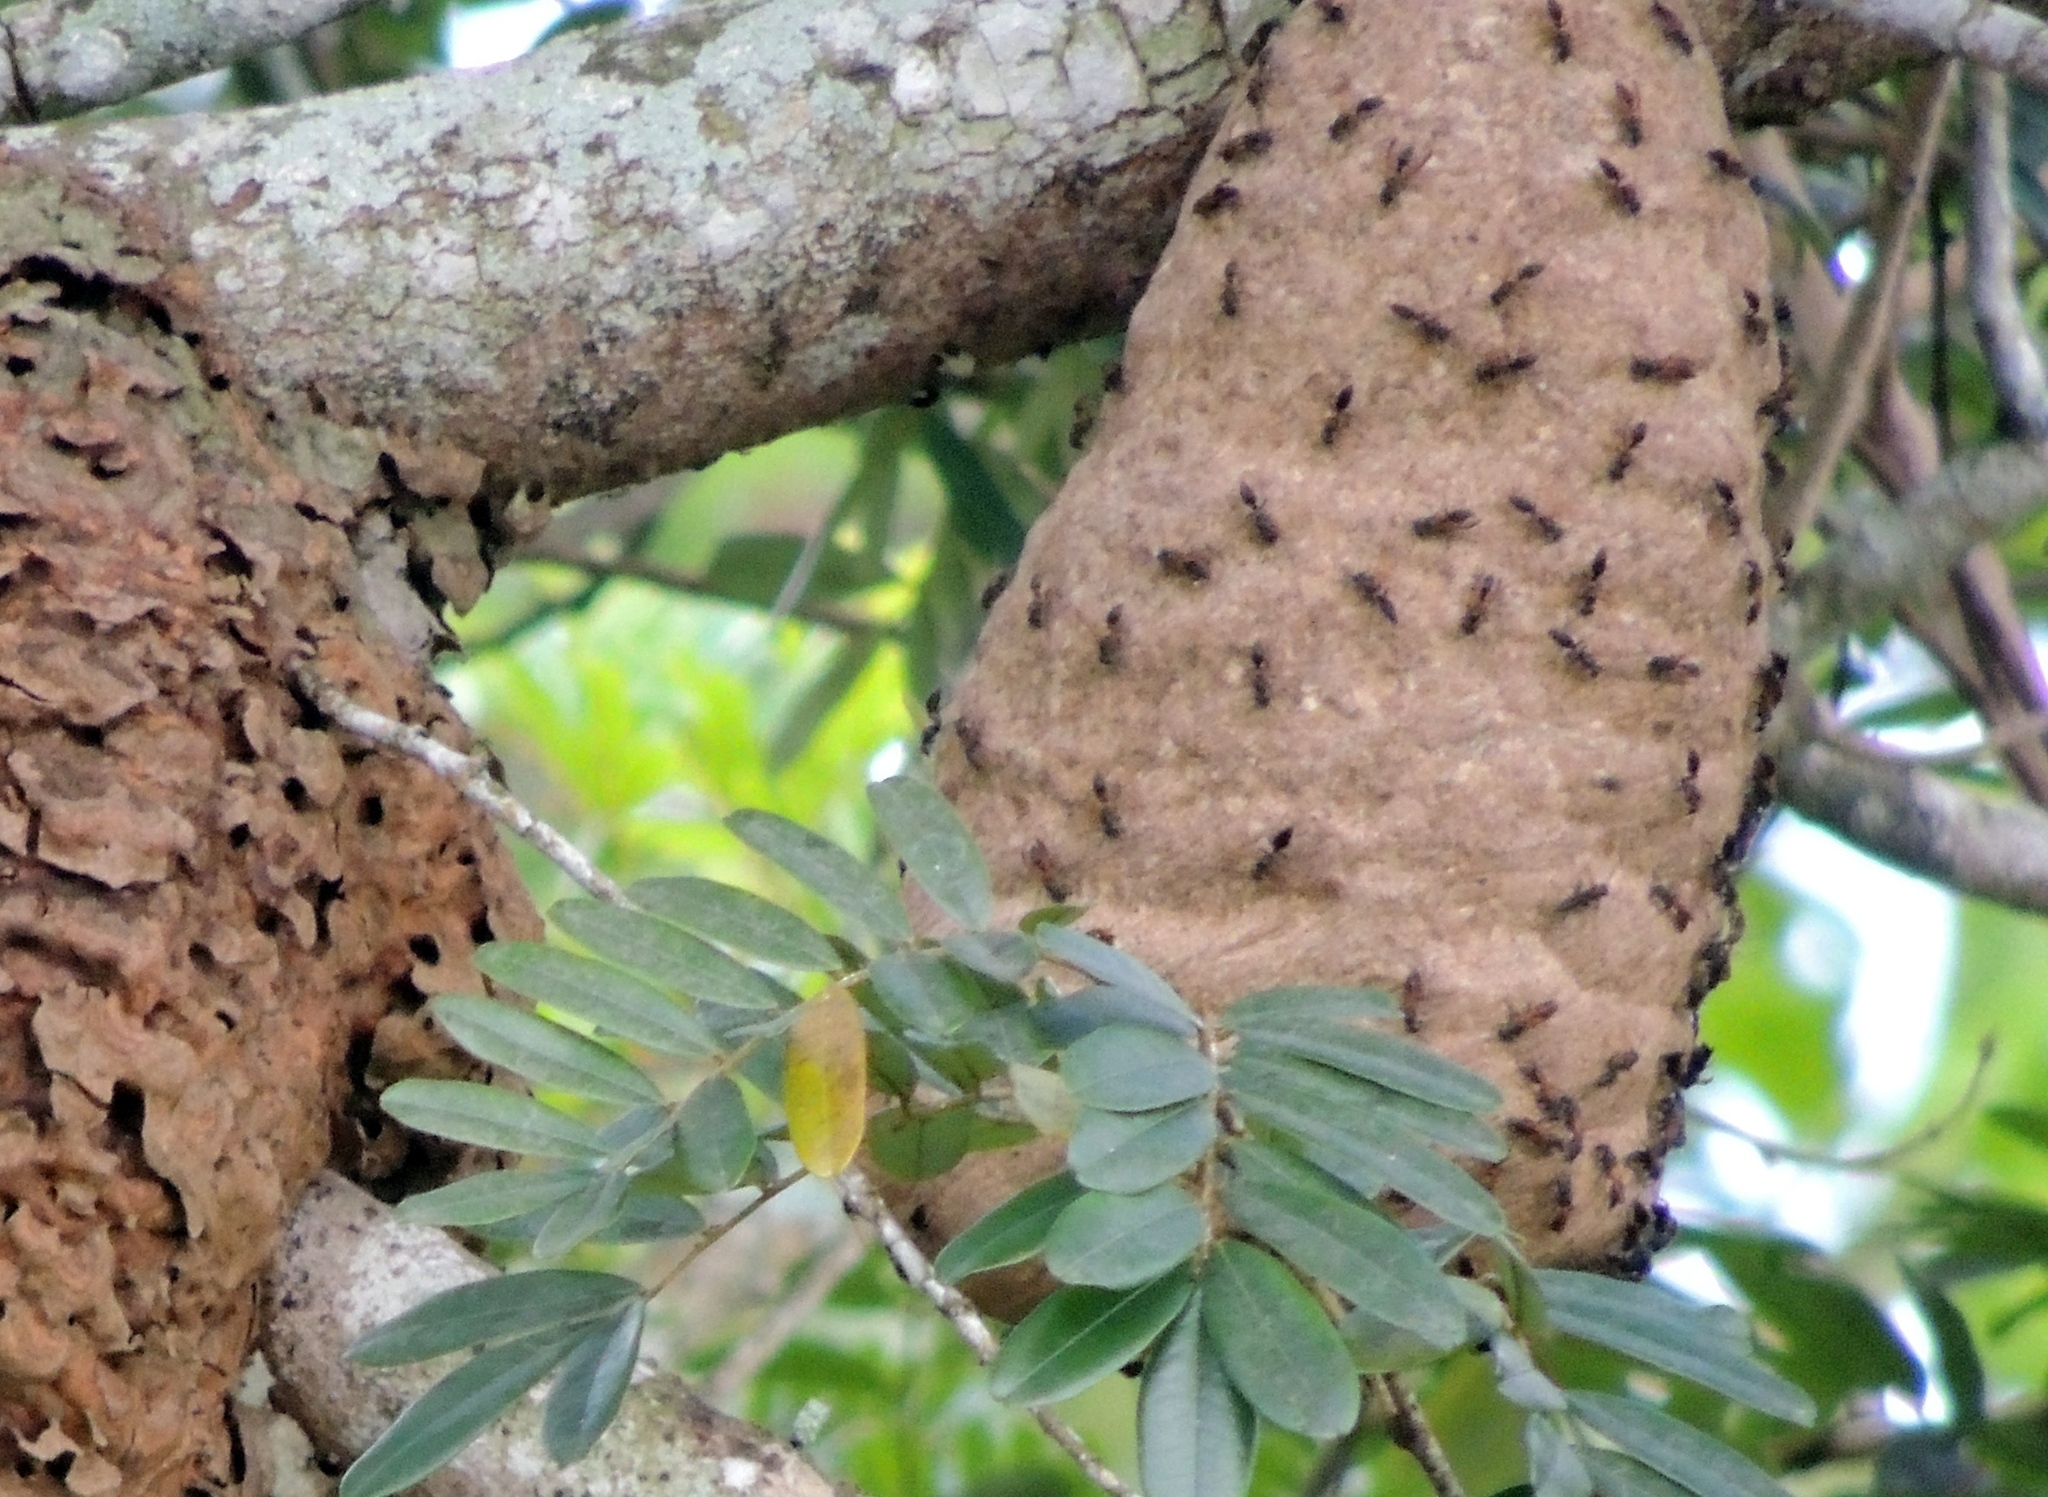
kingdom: Animalia
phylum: Arthropoda
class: Insecta
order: Hymenoptera
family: Eumenidae
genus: Polybia
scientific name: Polybia rejecta
